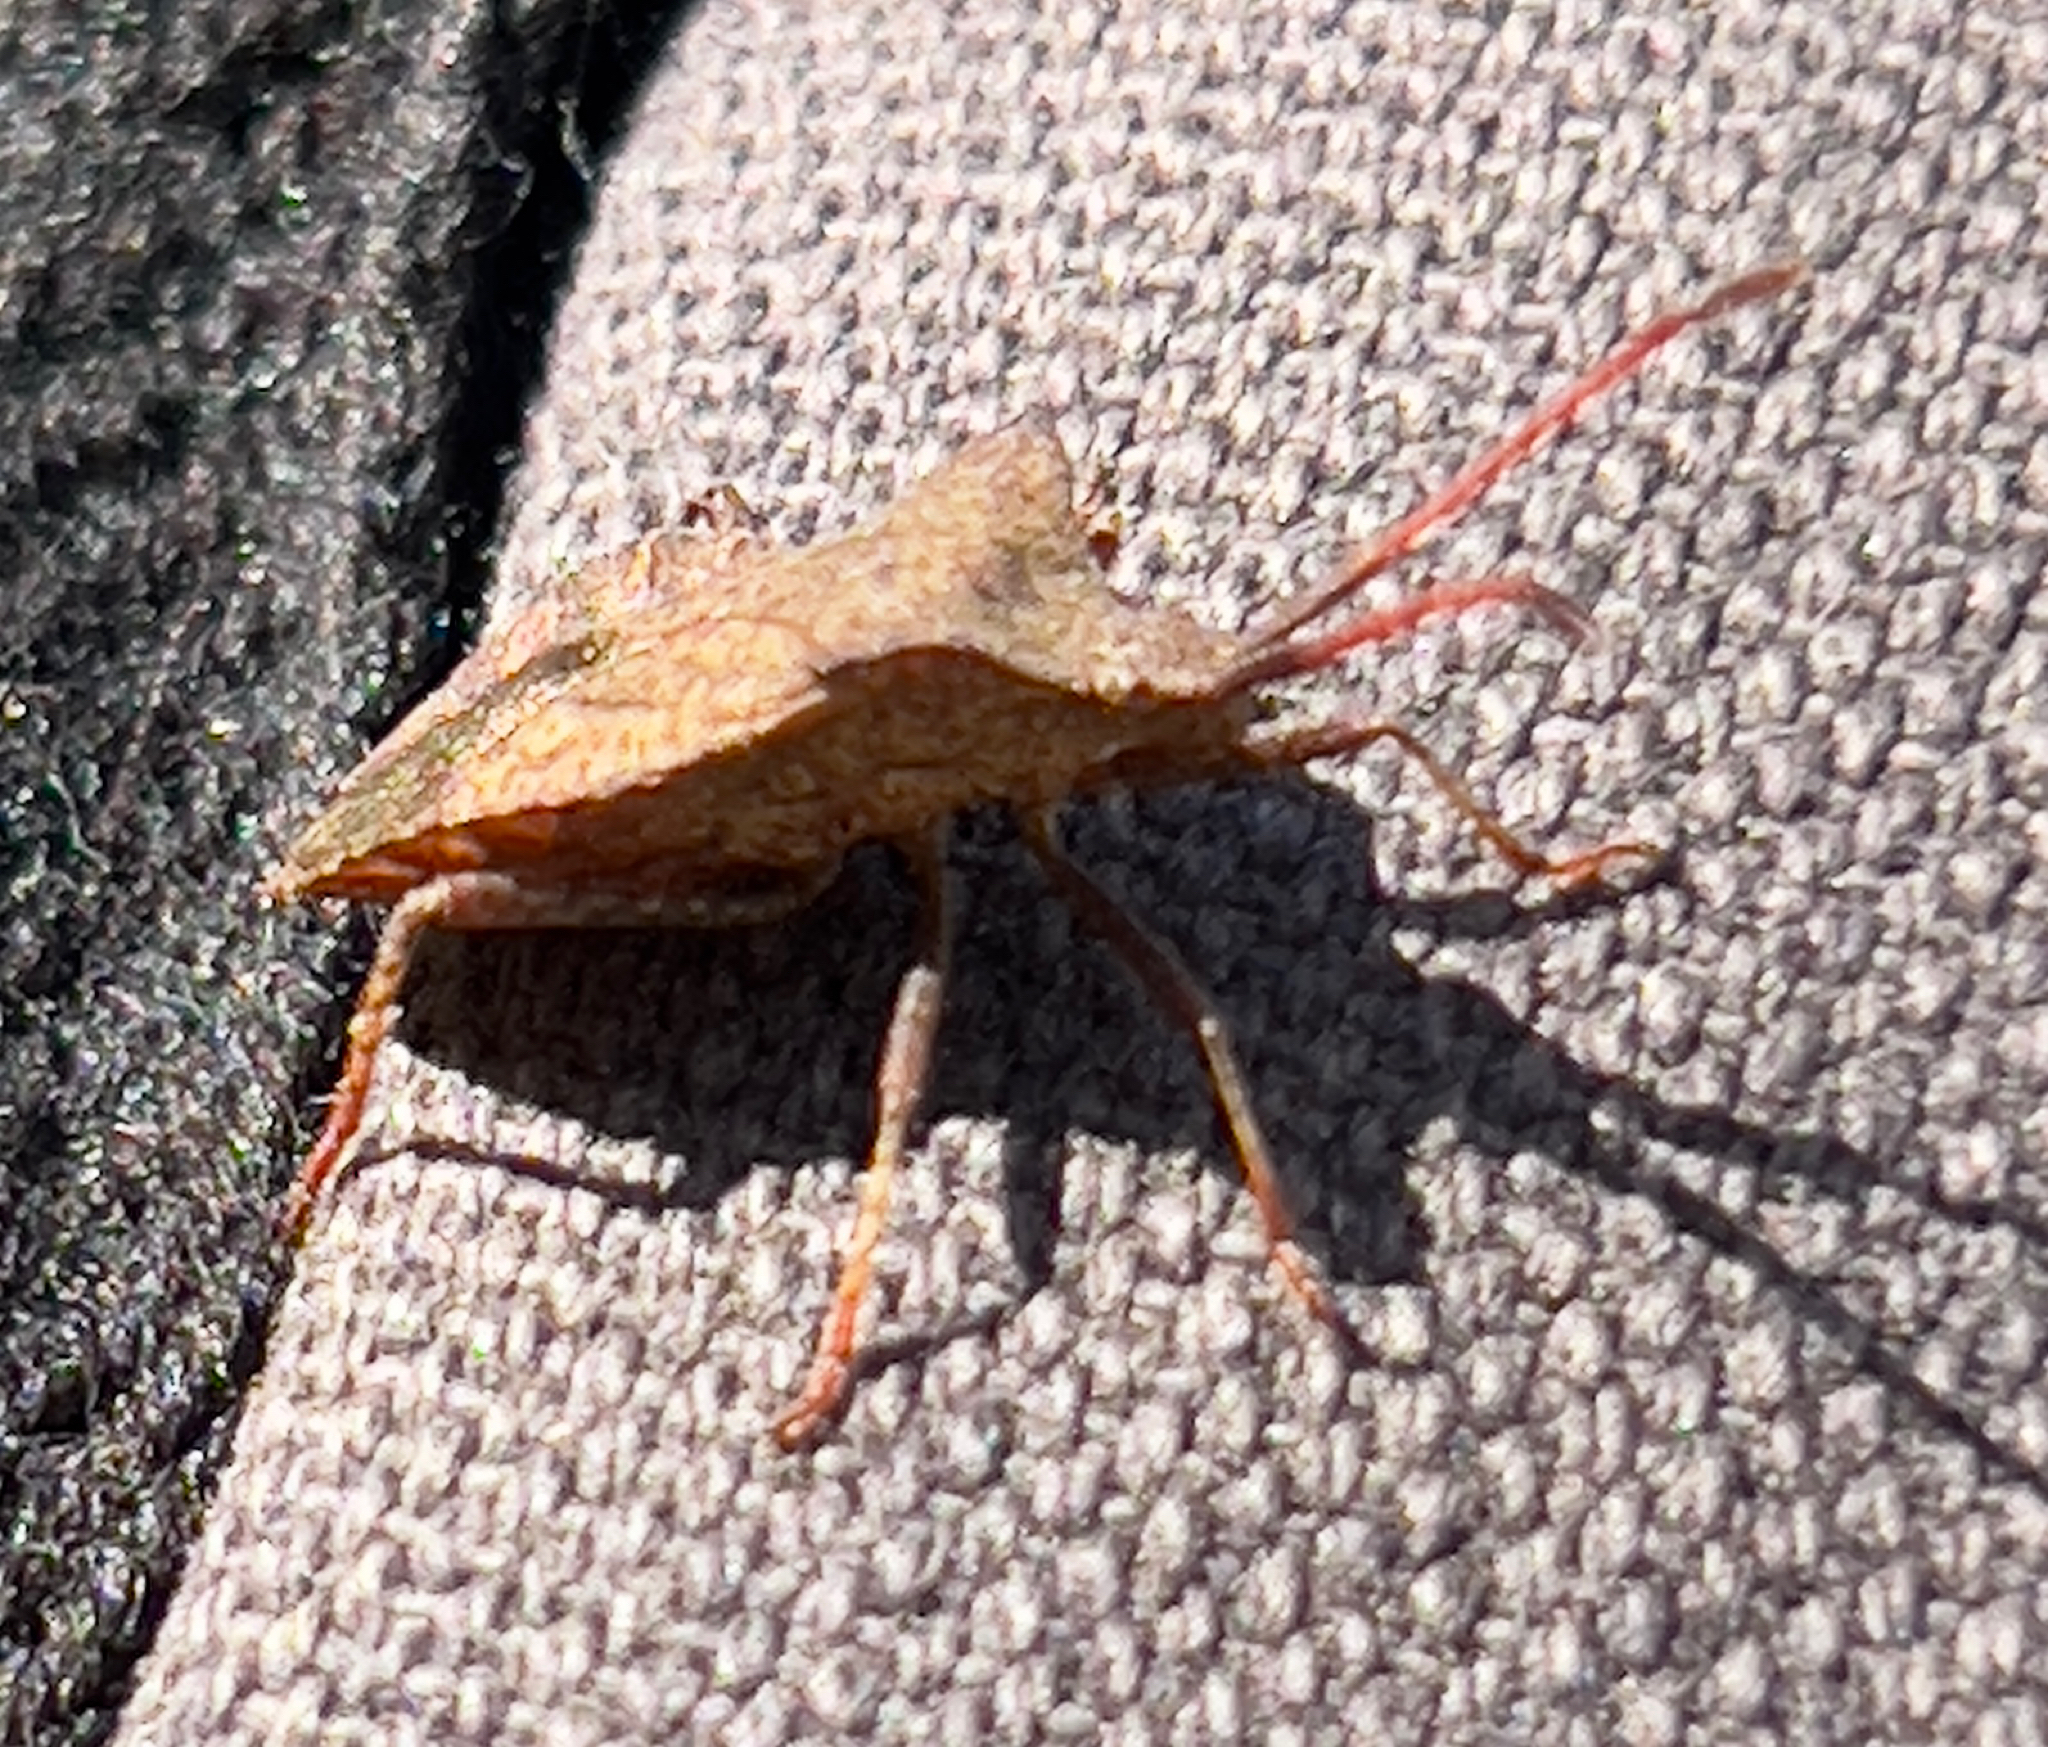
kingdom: Animalia
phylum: Arthropoda
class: Insecta
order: Hemiptera
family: Coreidae
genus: Coreus
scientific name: Coreus marginatus
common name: Dock bug
